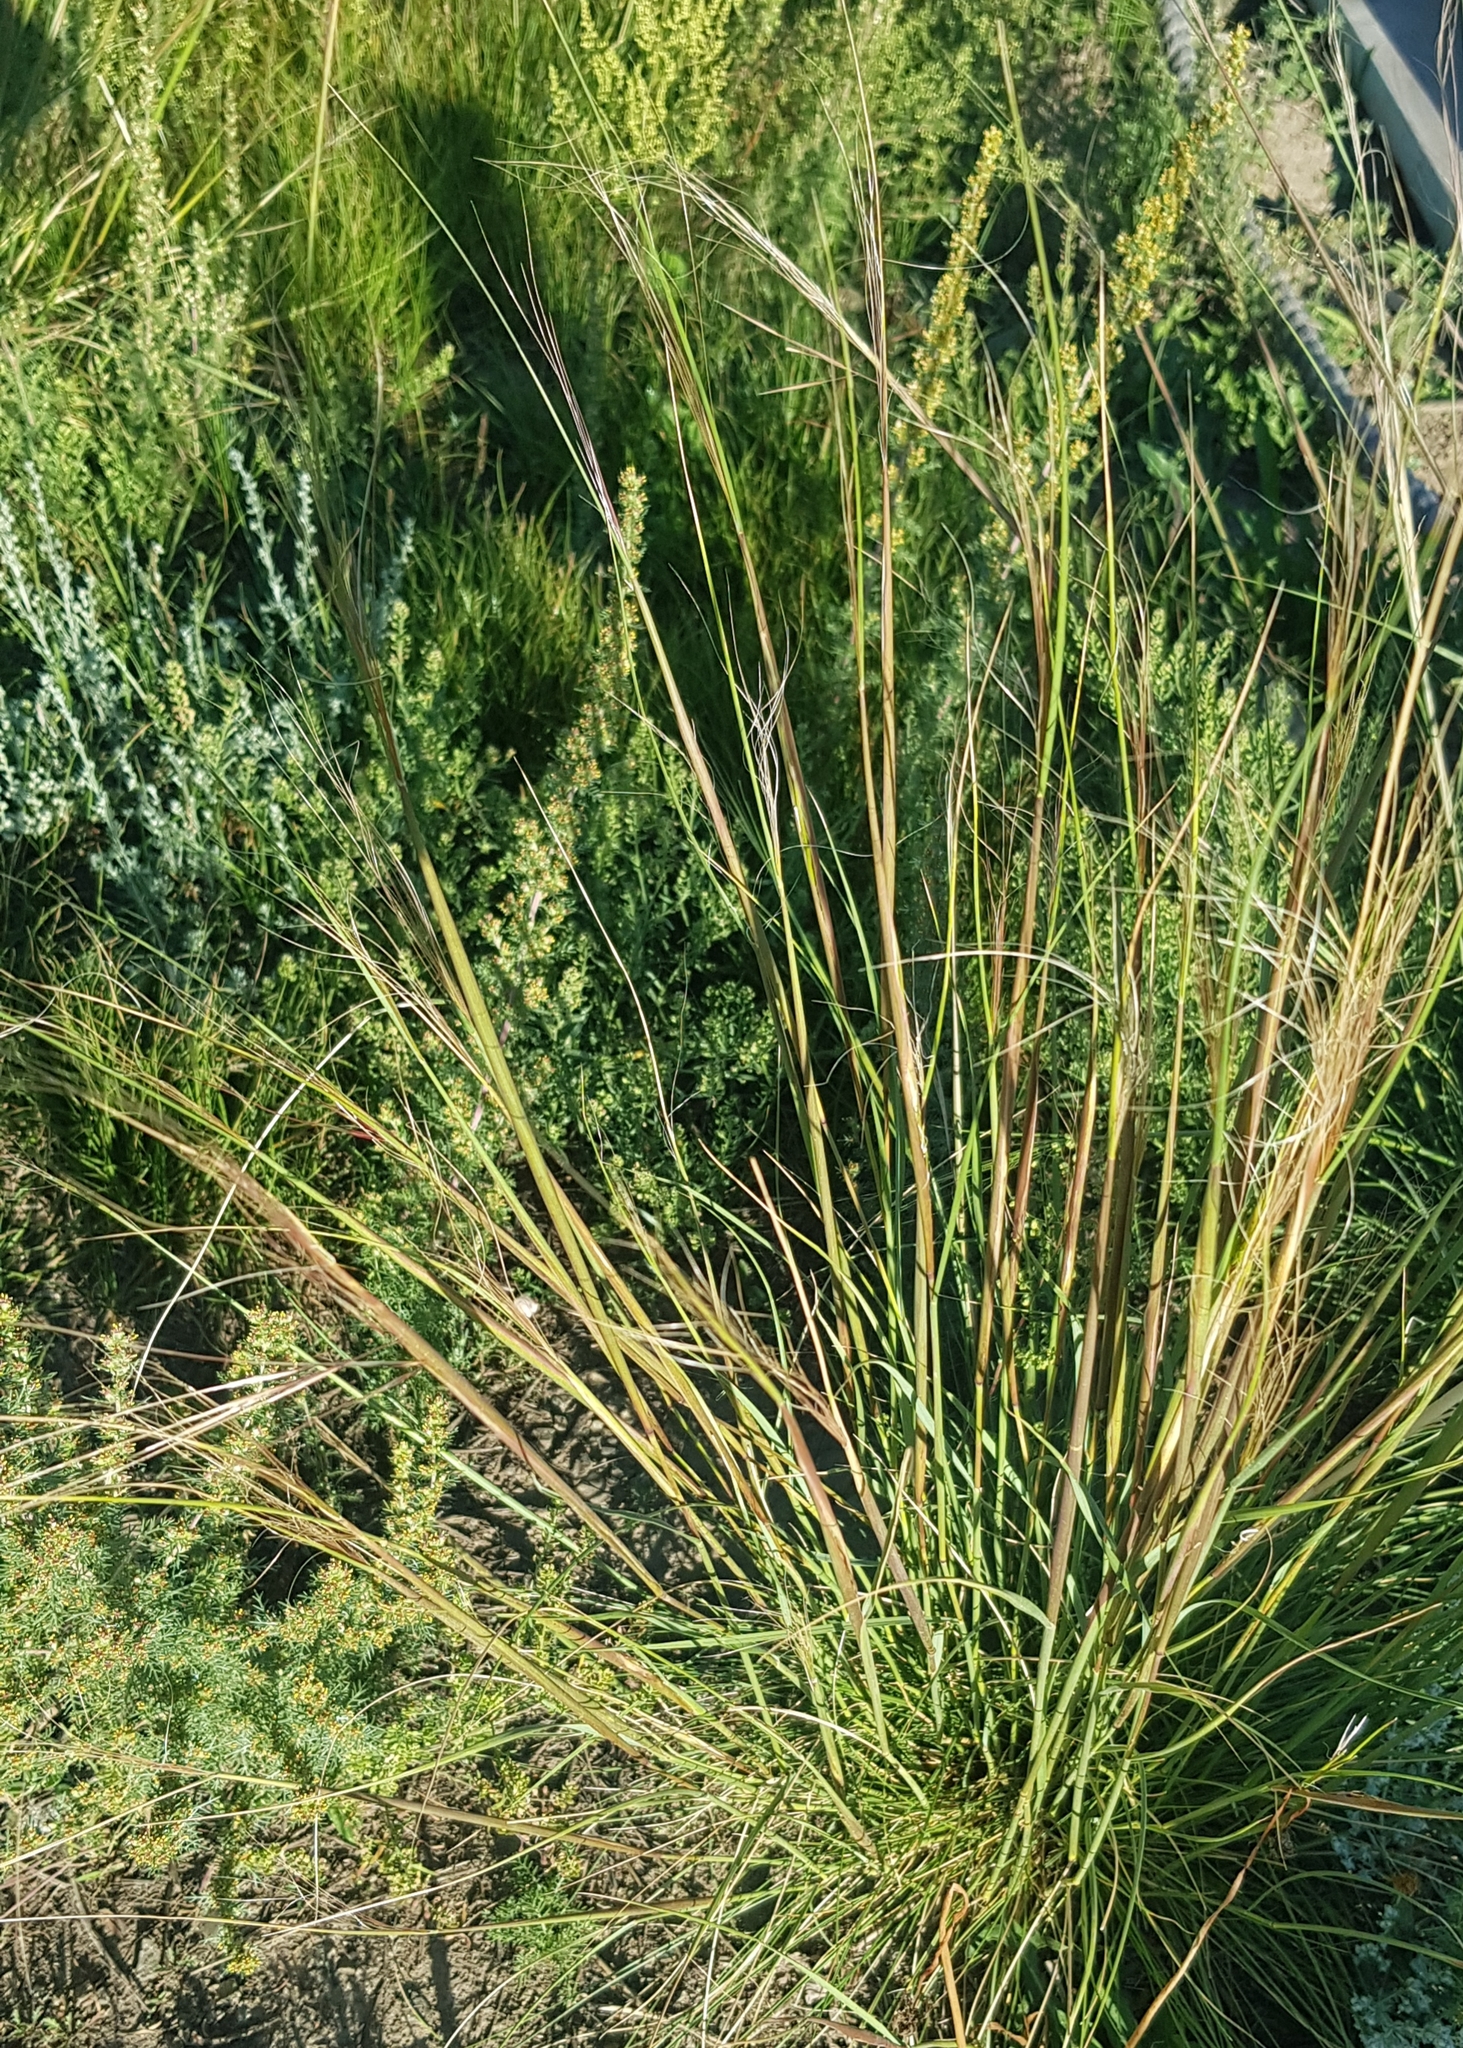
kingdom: Plantae
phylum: Tracheophyta
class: Liliopsida
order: Poales
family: Poaceae
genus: Stipa
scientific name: Stipa krylovii
